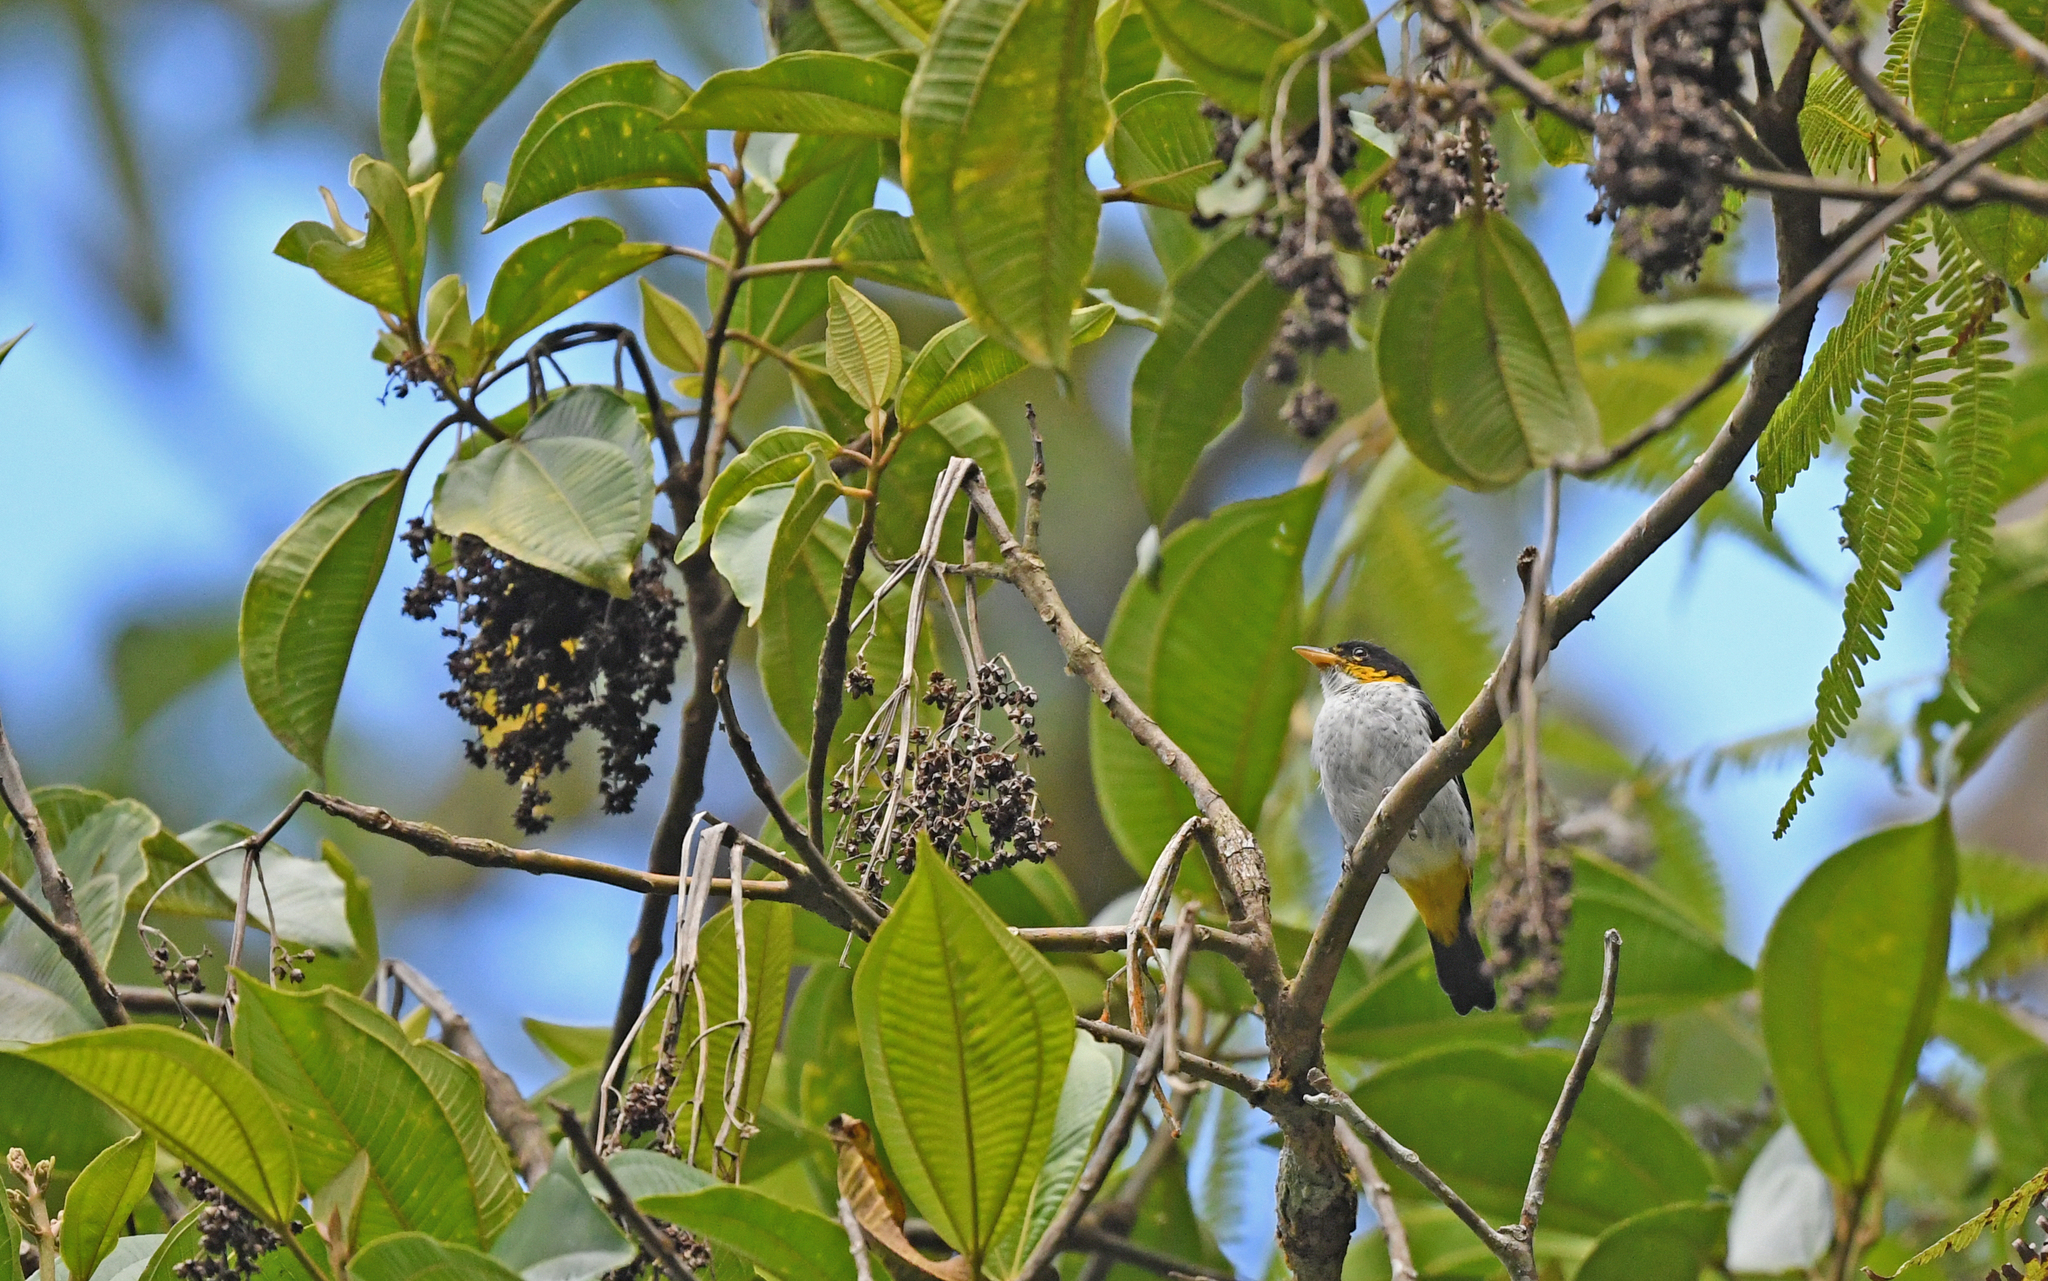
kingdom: Animalia
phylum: Chordata
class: Aves
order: Passeriformes
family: Thraupidae
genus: Hemithraupis
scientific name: Hemithraupis flavicollis
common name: Yellow-backed tanager
